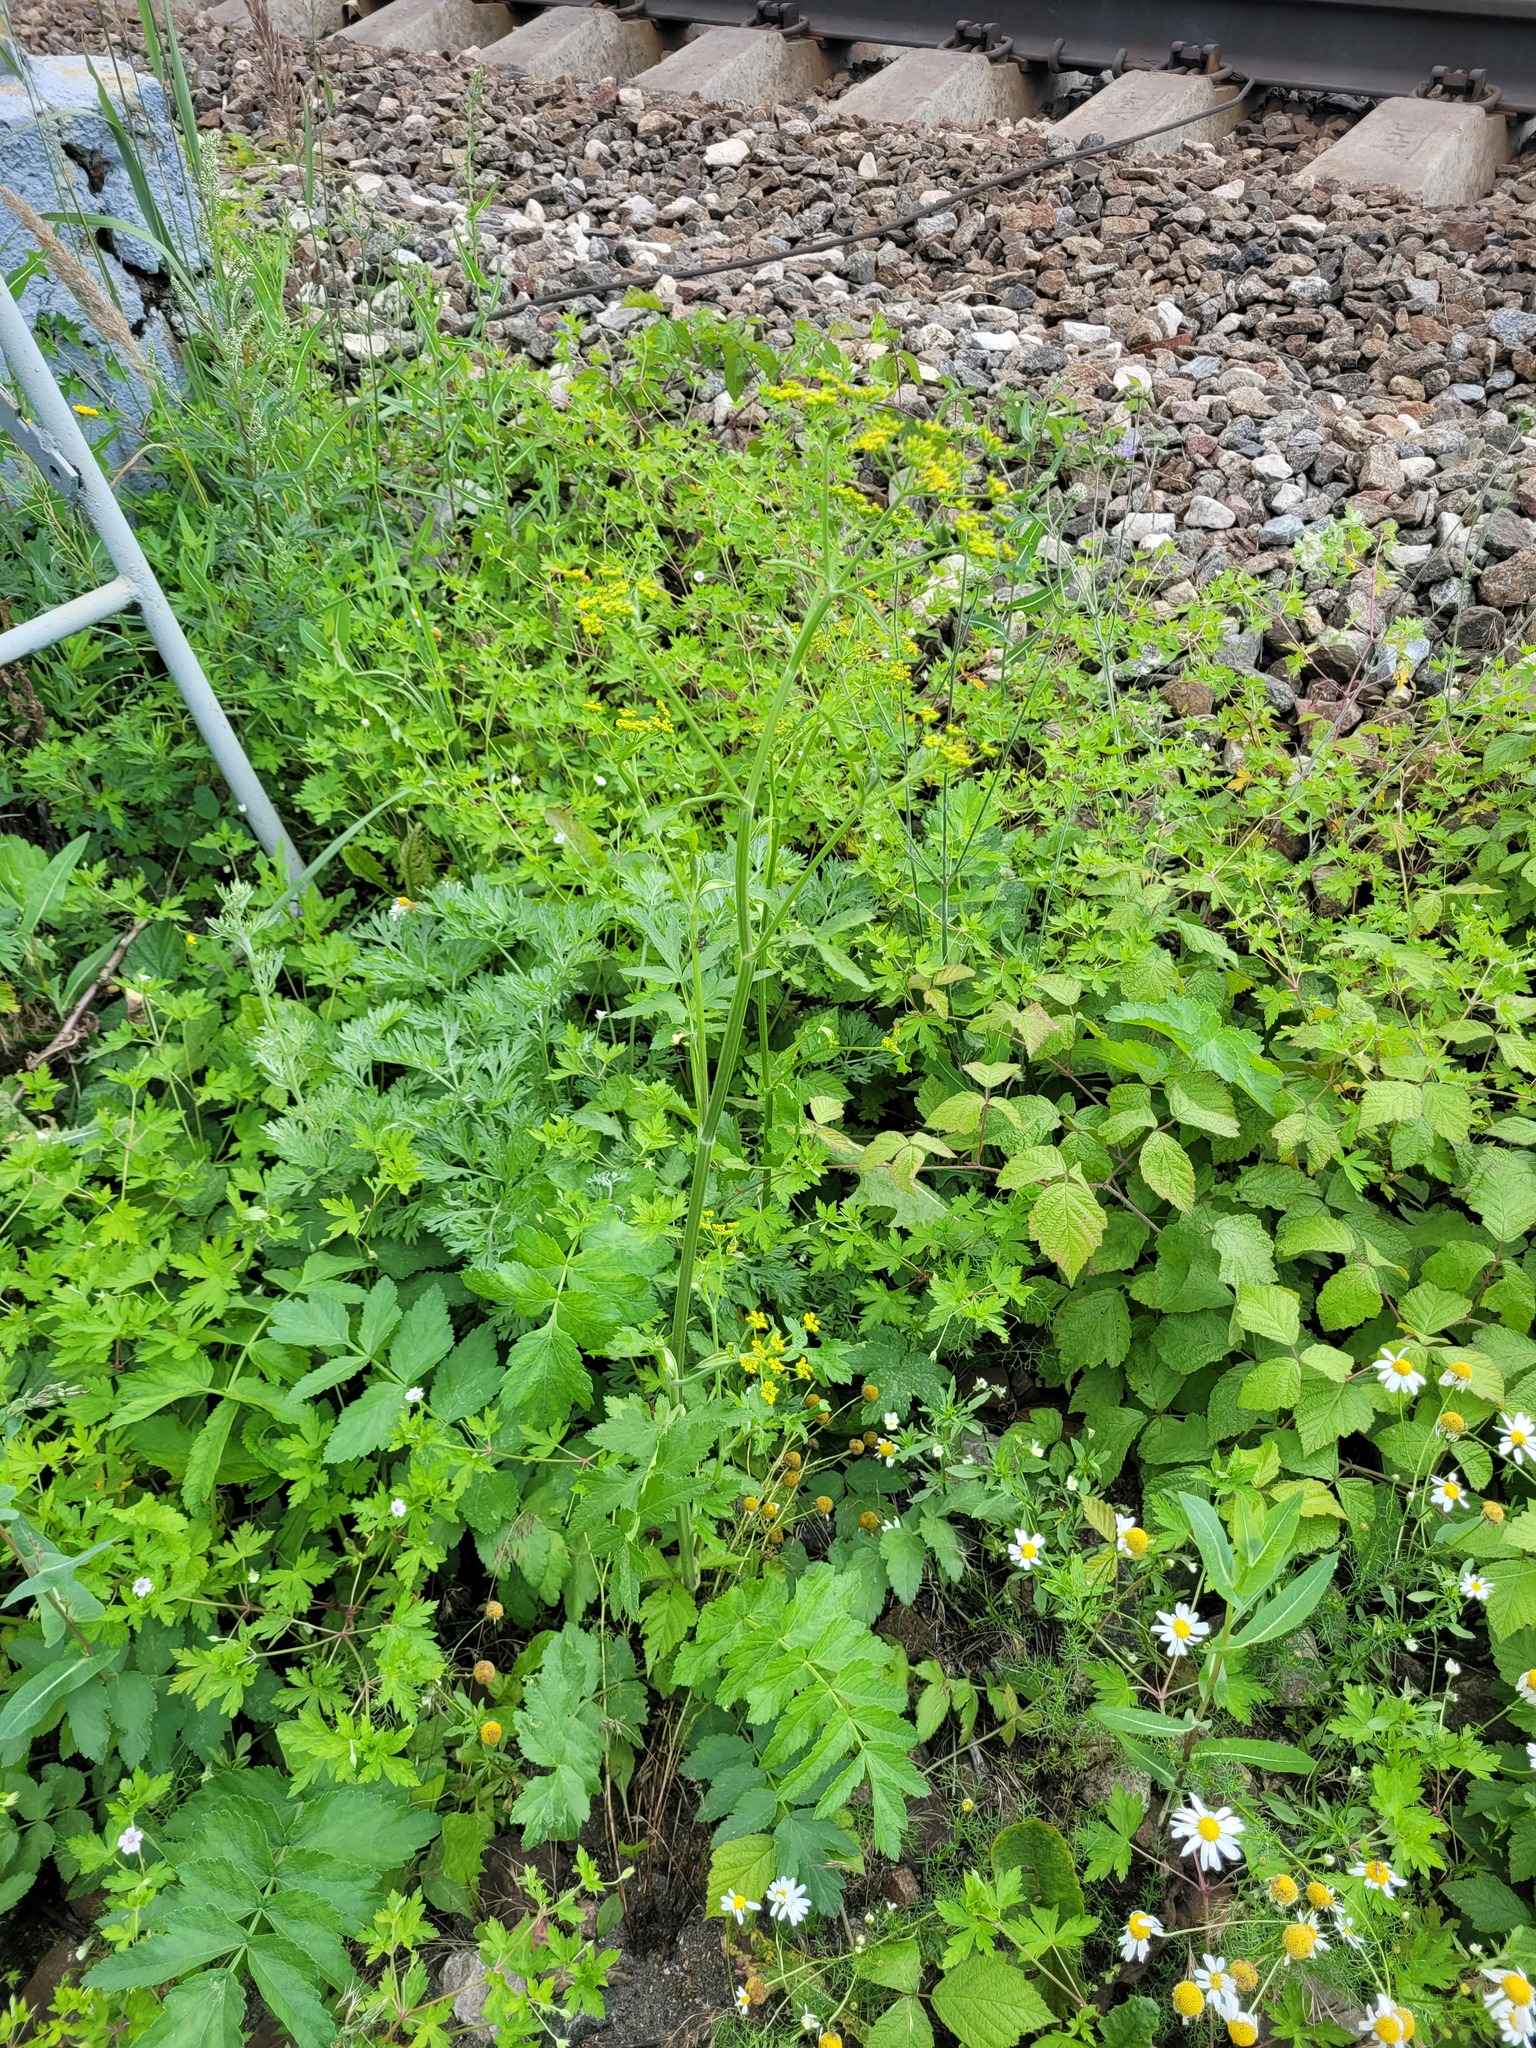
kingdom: Plantae
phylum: Tracheophyta
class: Magnoliopsida
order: Apiales
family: Apiaceae
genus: Pastinaca
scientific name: Pastinaca sativa
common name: Wild parsnip
